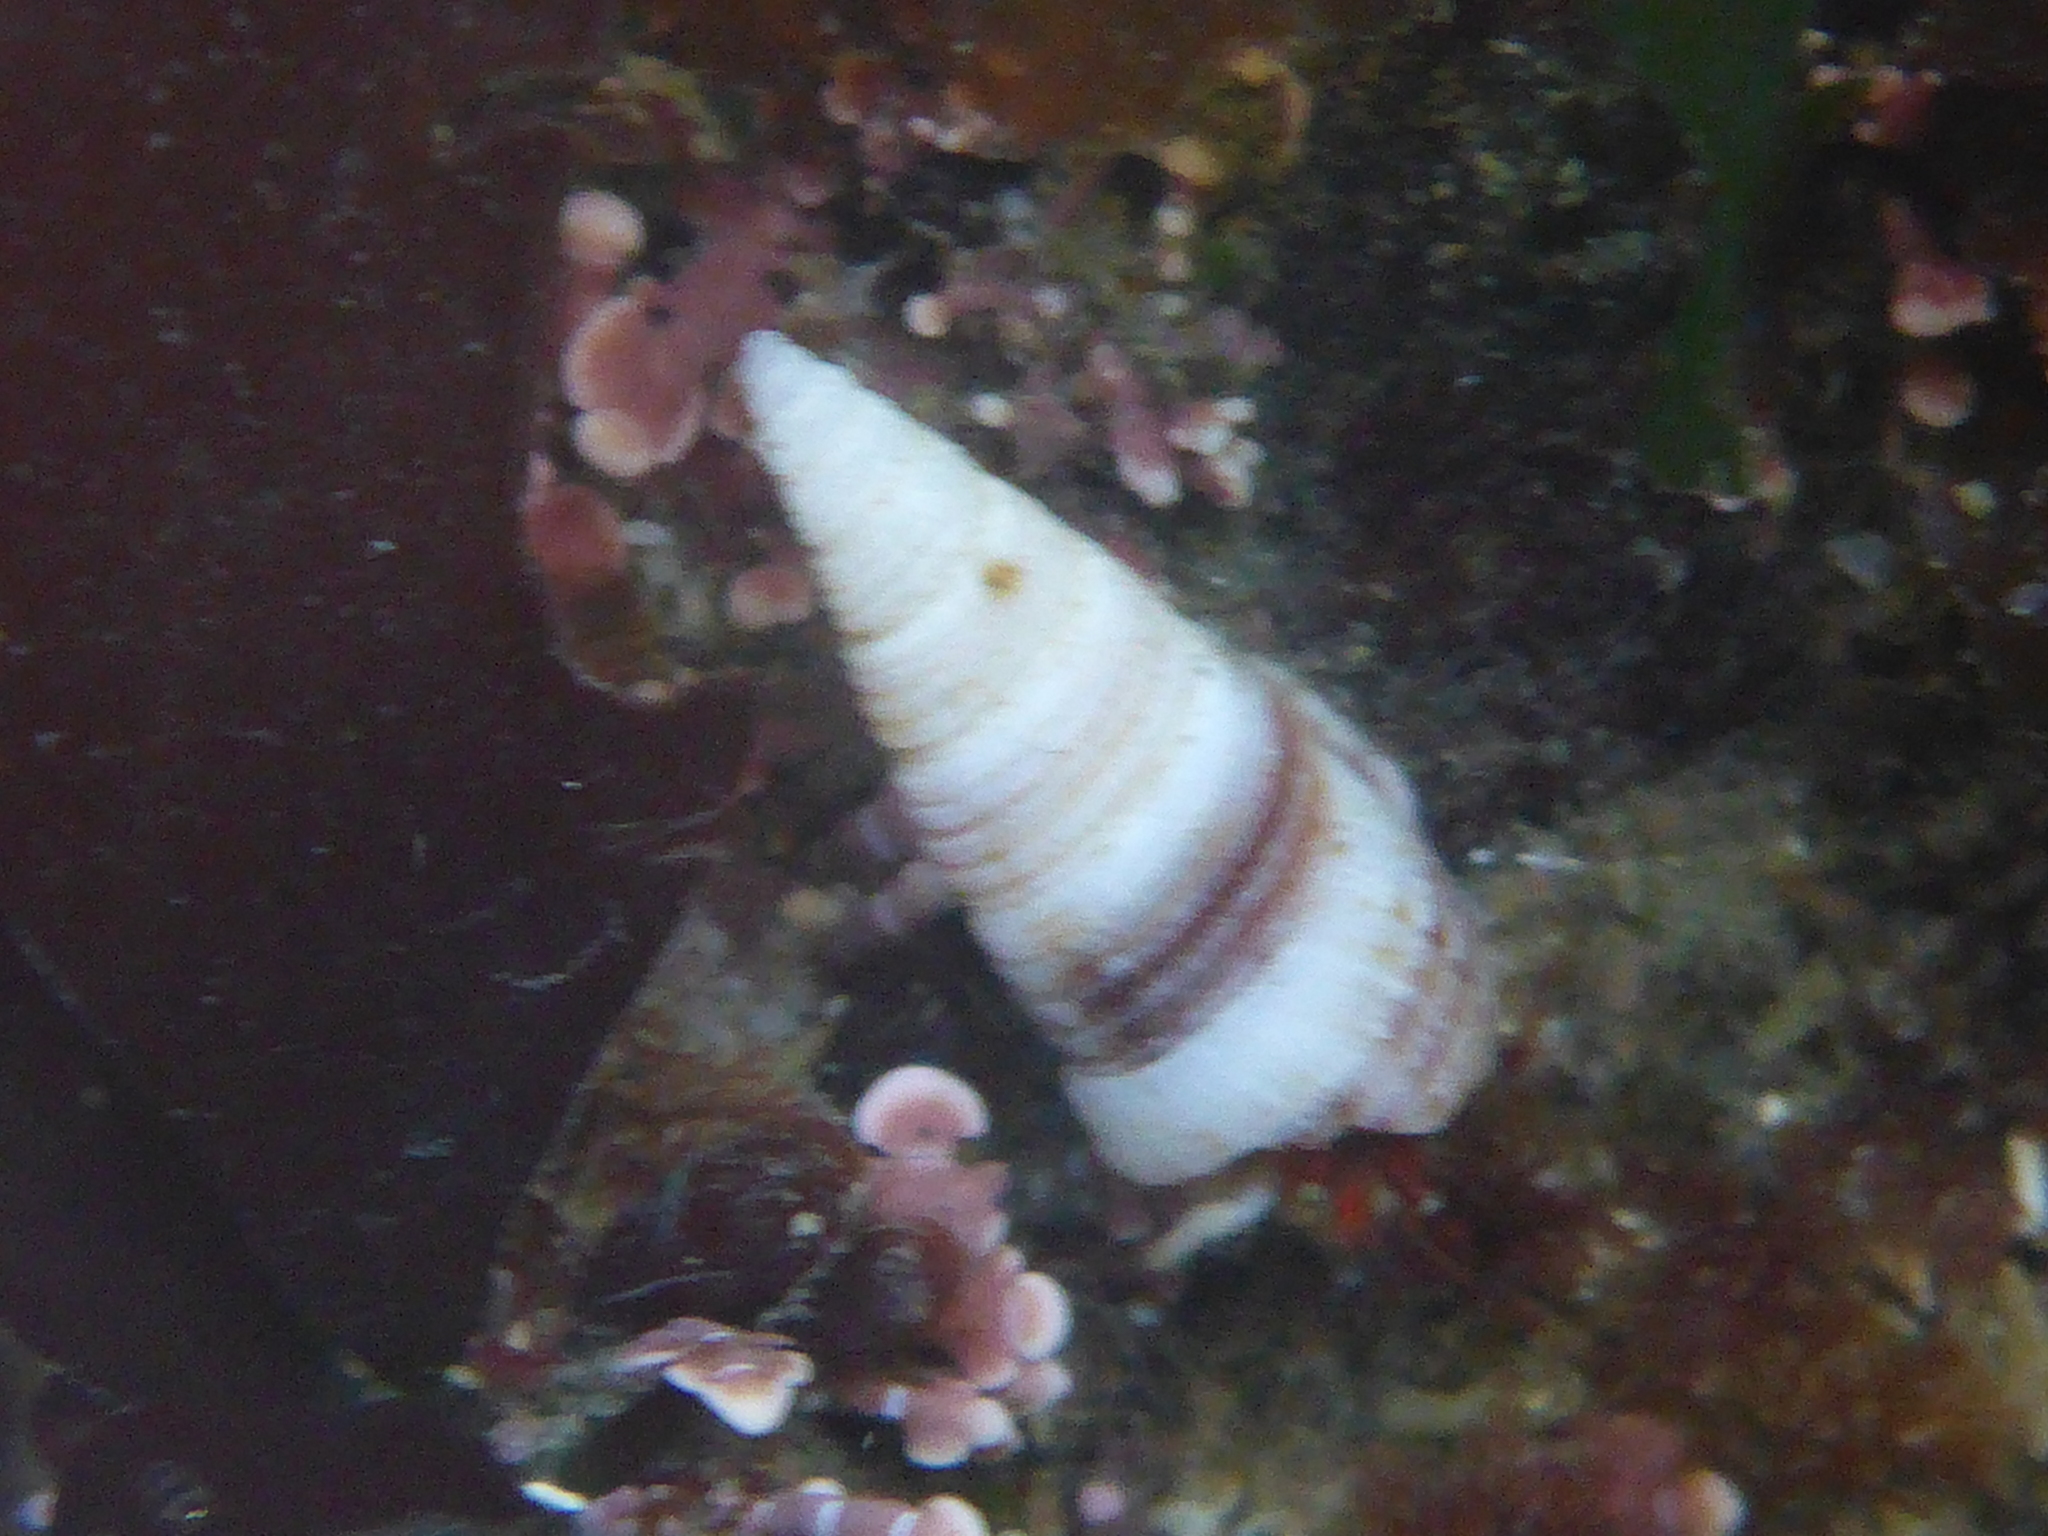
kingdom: Animalia
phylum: Mollusca
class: Gastropoda
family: Cerithiidae
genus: Neostylidium
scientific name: Neostylidium eschrichtii
